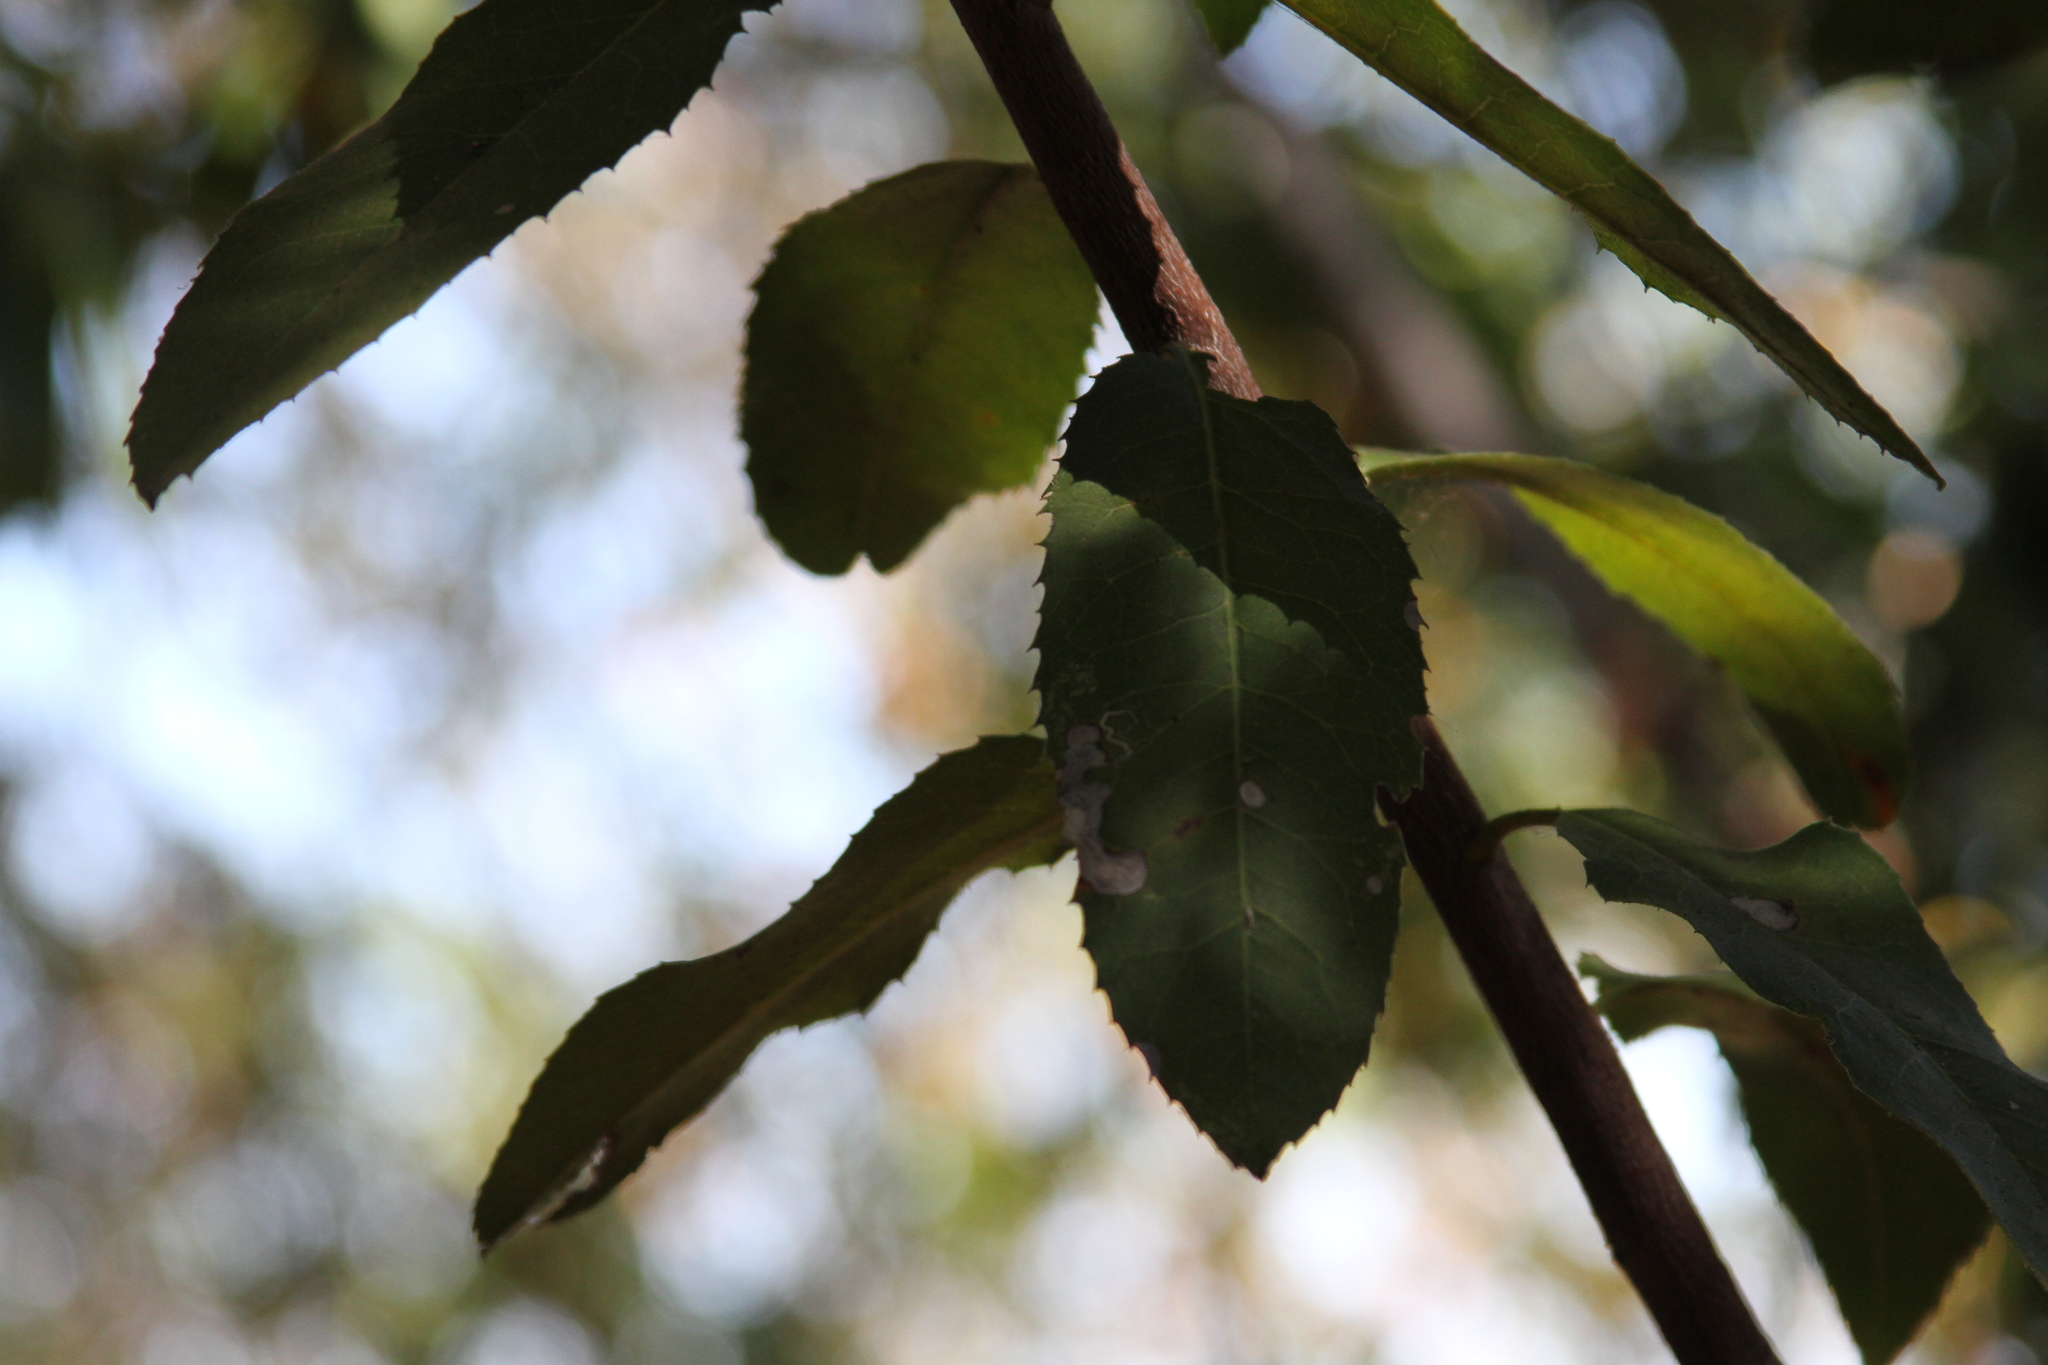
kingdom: Plantae
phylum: Tracheophyta
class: Magnoliopsida
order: Rosales
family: Rosaceae
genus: Heteromeles
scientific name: Heteromeles arbutifolia
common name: California-holly
